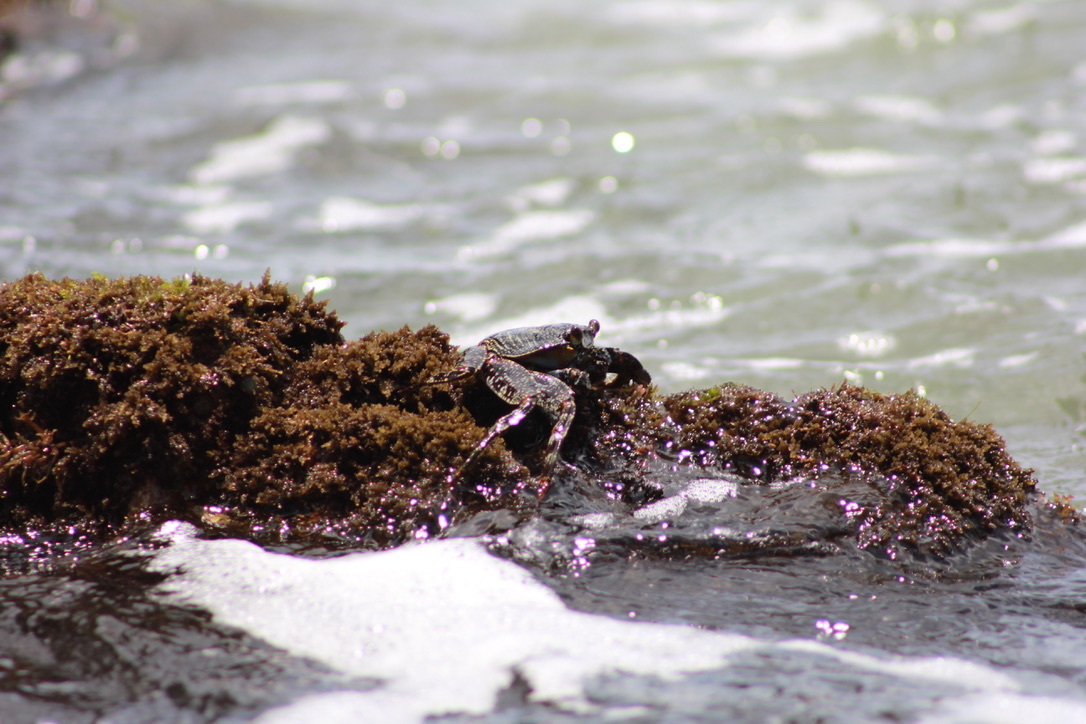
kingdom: Animalia
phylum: Arthropoda
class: Malacostraca
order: Decapoda
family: Grapsidae
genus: Grapsus
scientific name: Grapsus grapsus
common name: Sally lightfoot
